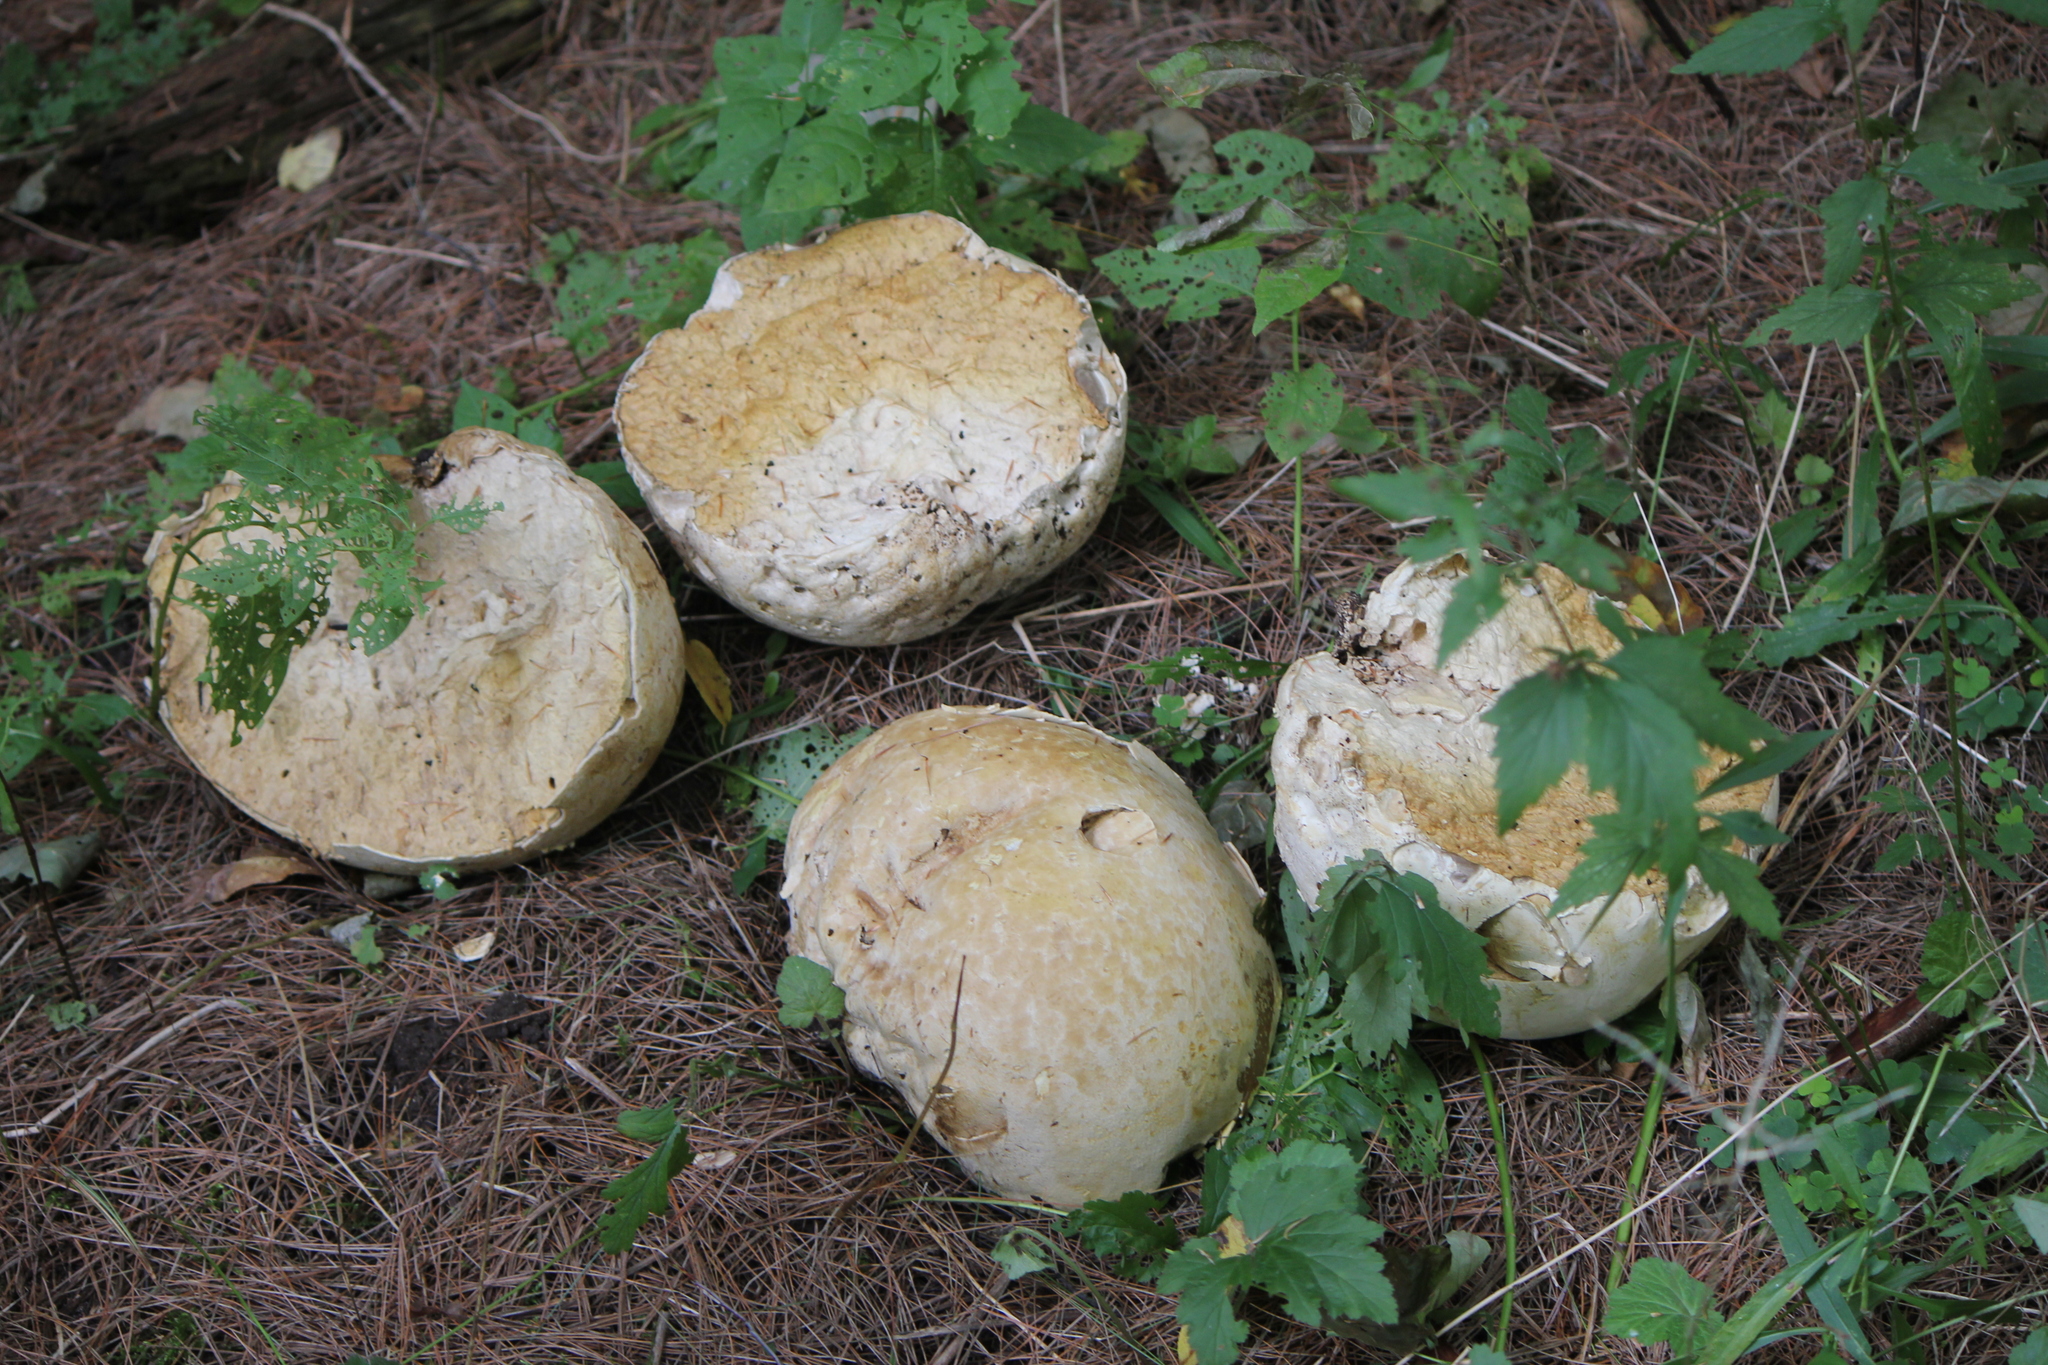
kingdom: Fungi
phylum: Basidiomycota
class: Agaricomycetes
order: Agaricales
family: Lycoperdaceae
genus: Calvatia
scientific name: Calvatia gigantea
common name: Giant puffball
